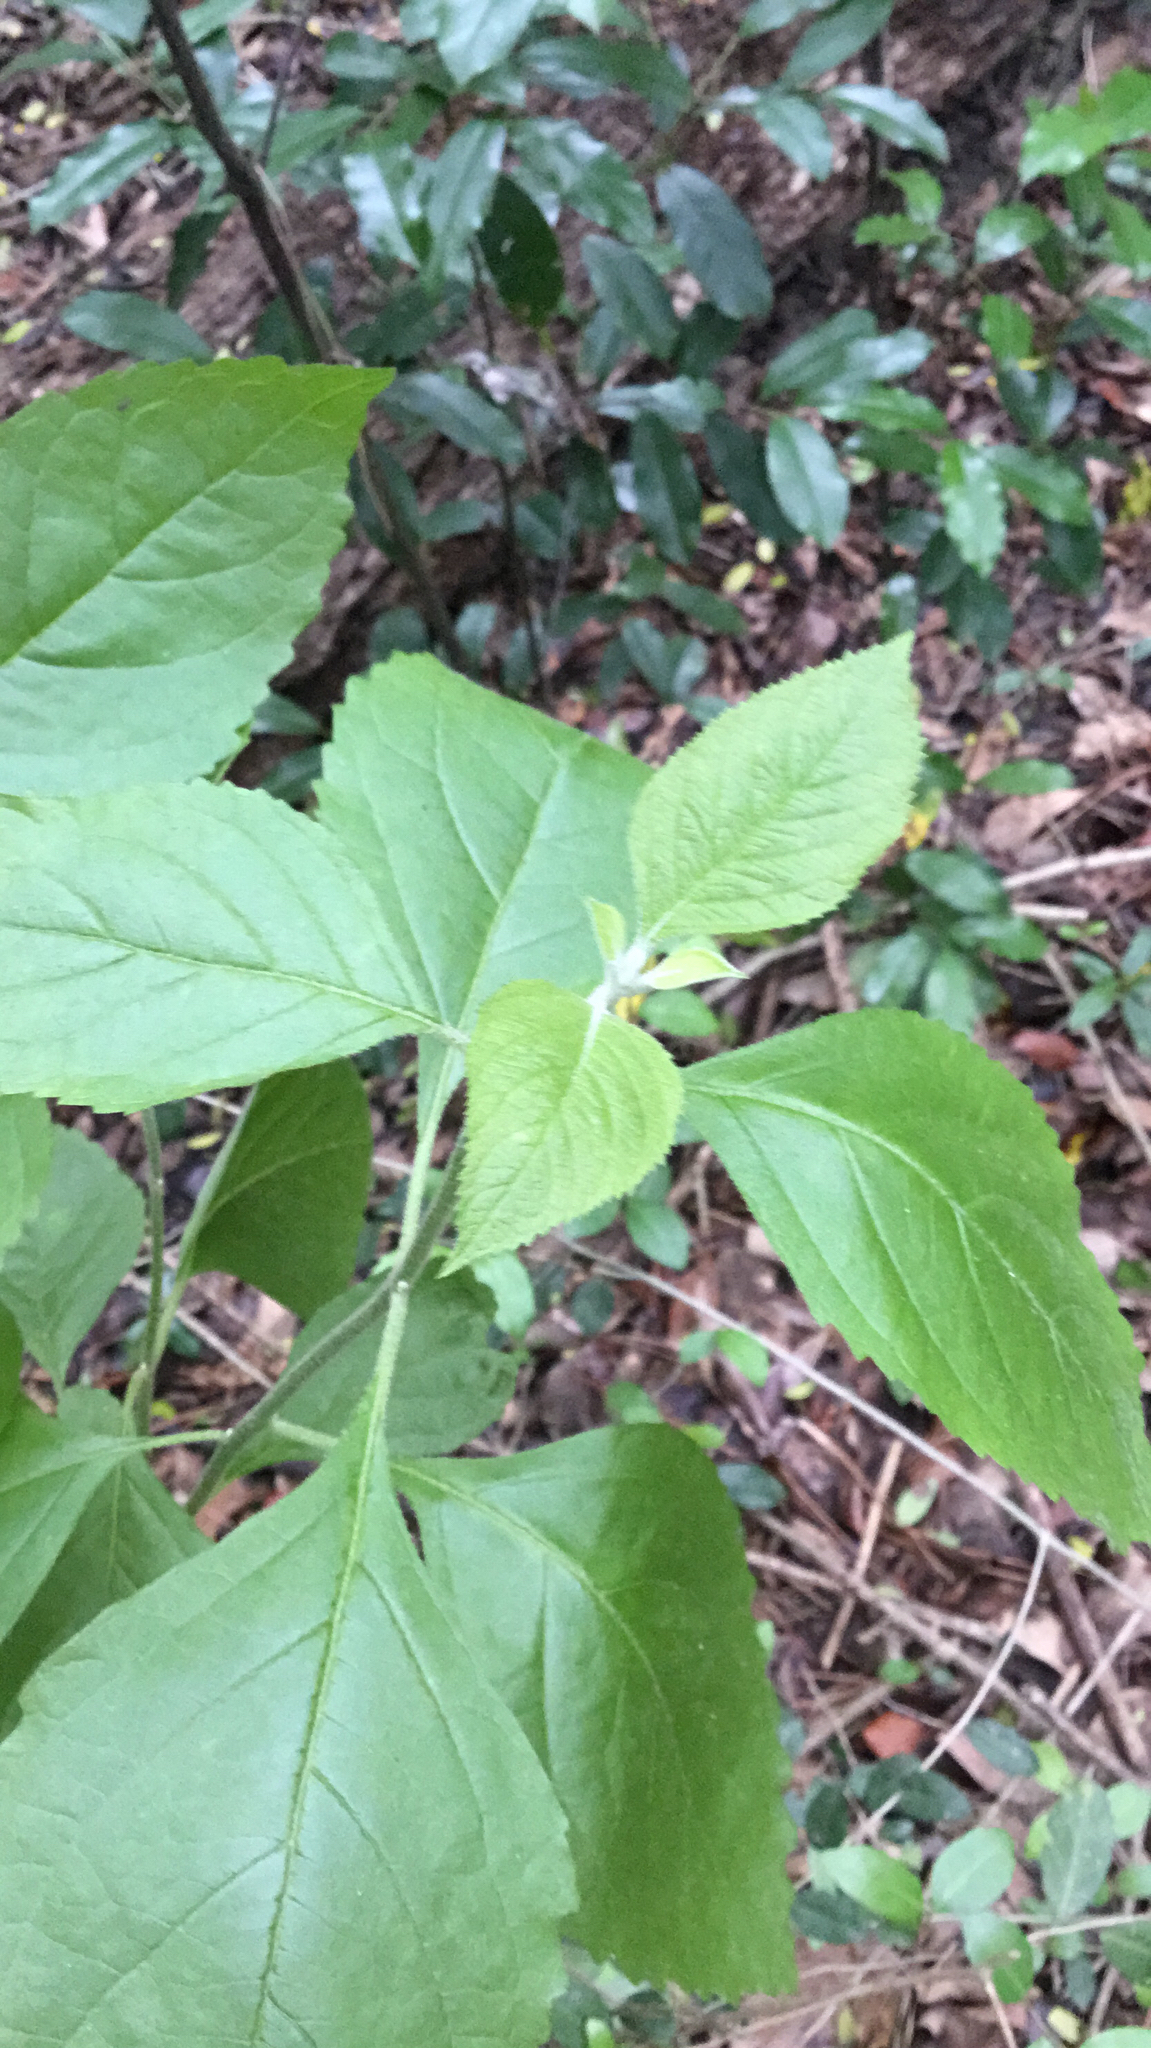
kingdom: Plantae
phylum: Tracheophyta
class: Magnoliopsida
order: Lamiales
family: Lamiaceae
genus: Callicarpa
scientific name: Callicarpa americana
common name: American beautyberry
